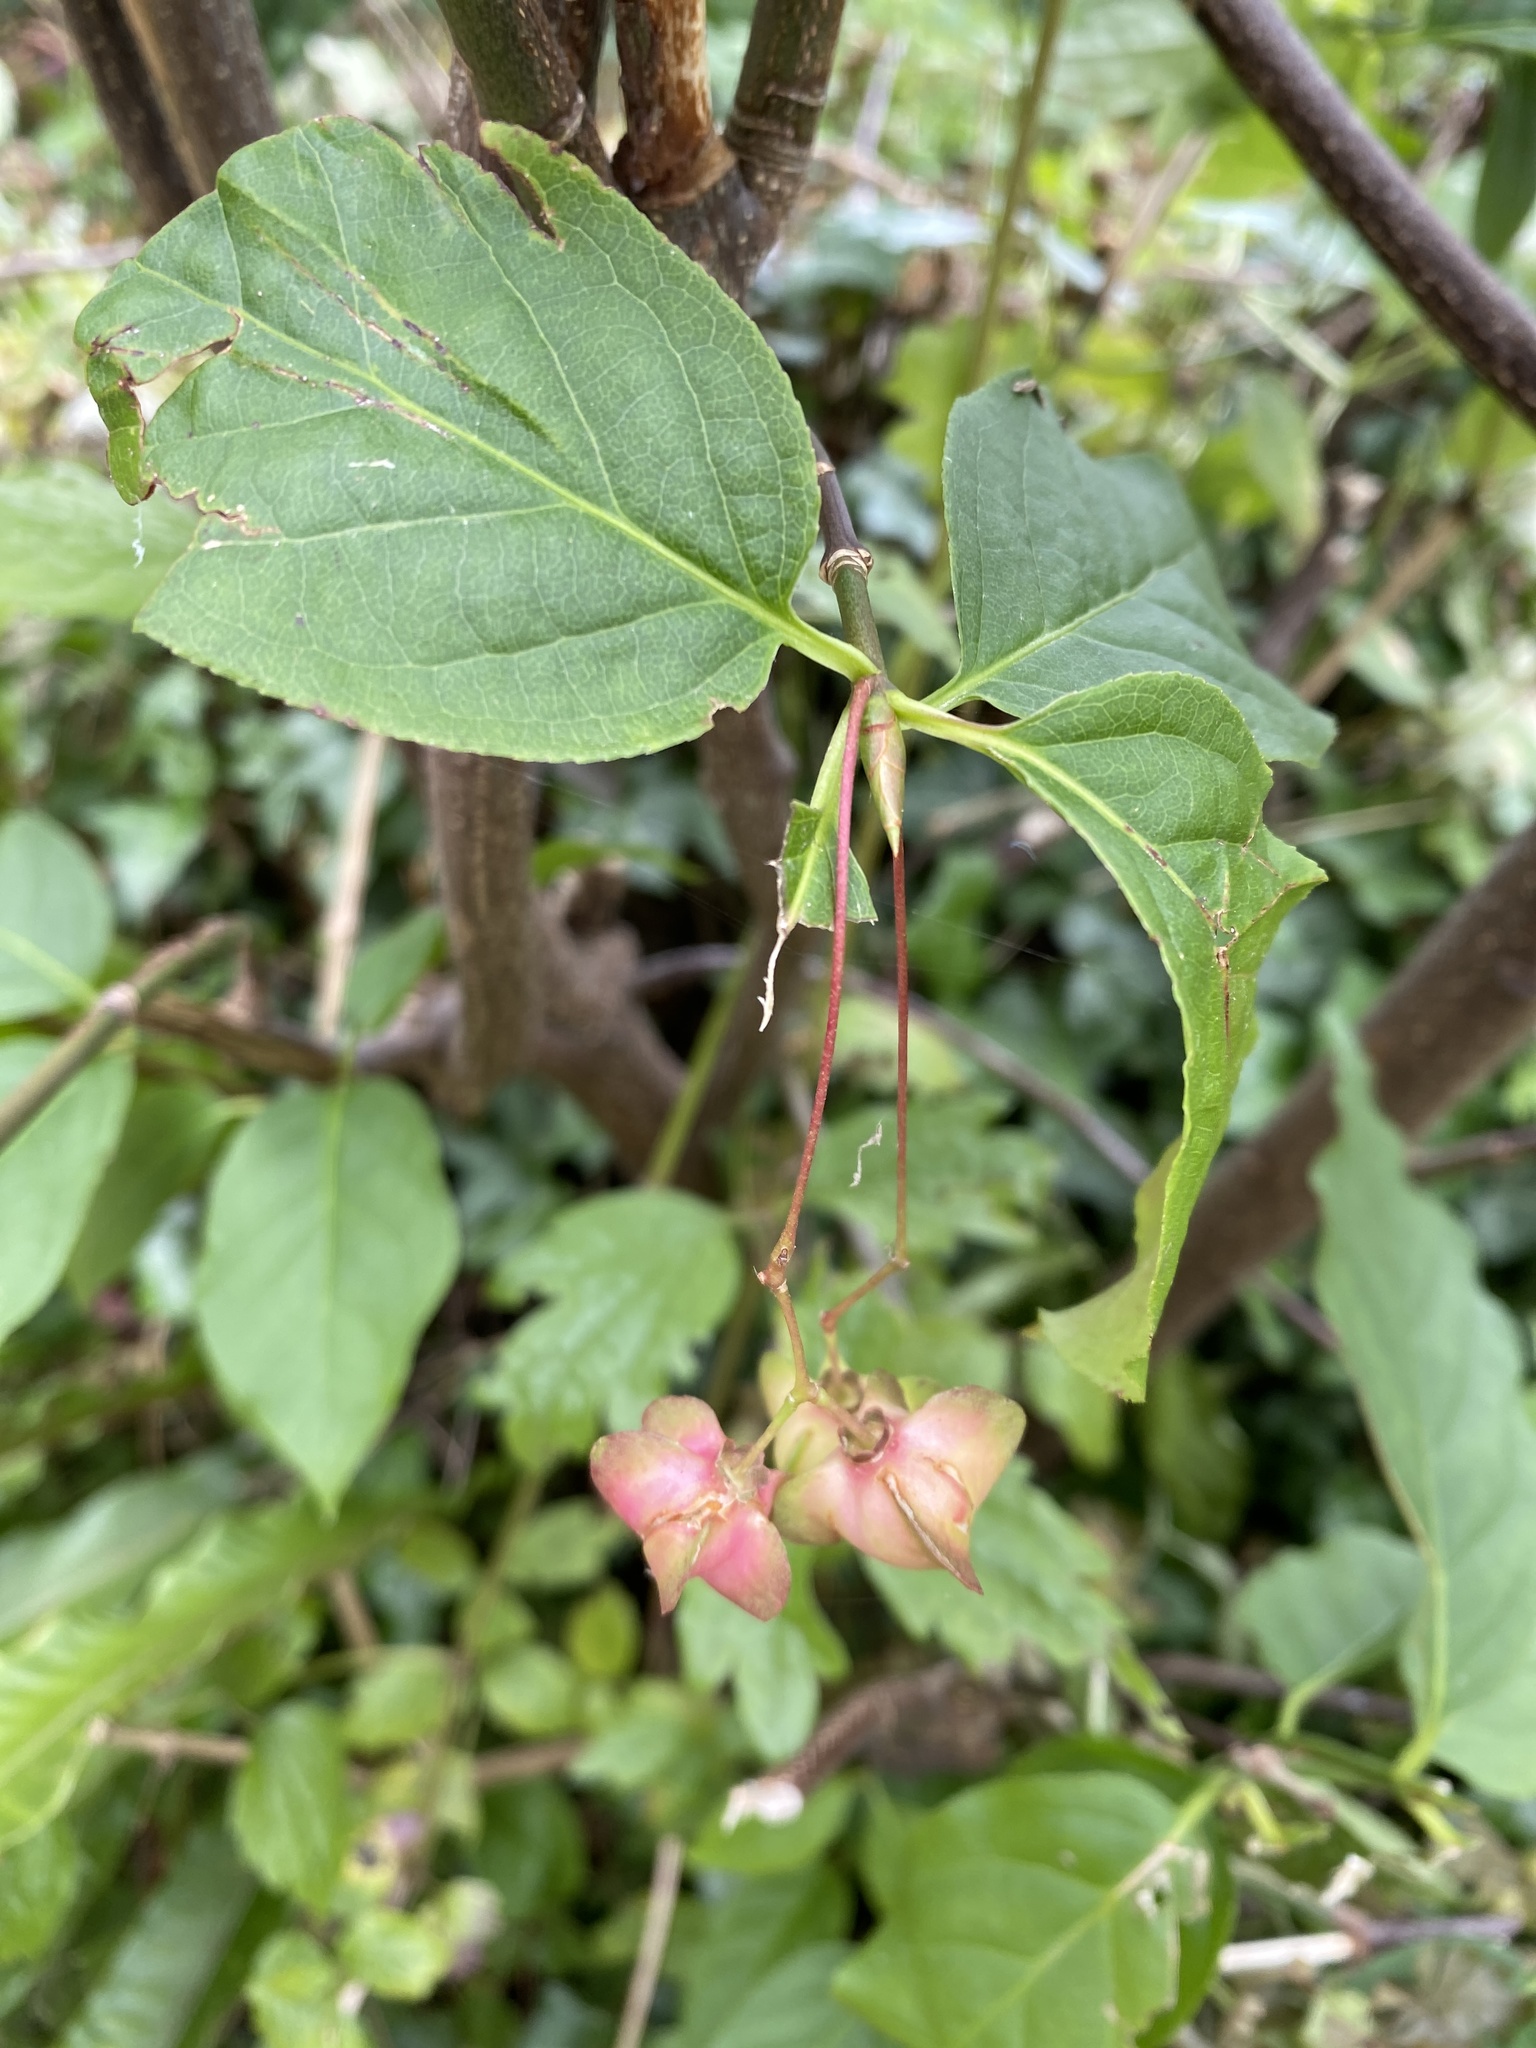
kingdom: Plantae
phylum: Tracheophyta
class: Magnoliopsida
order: Celastrales
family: Celastraceae
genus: Euonymus
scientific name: Euonymus europaeus
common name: Spindle
